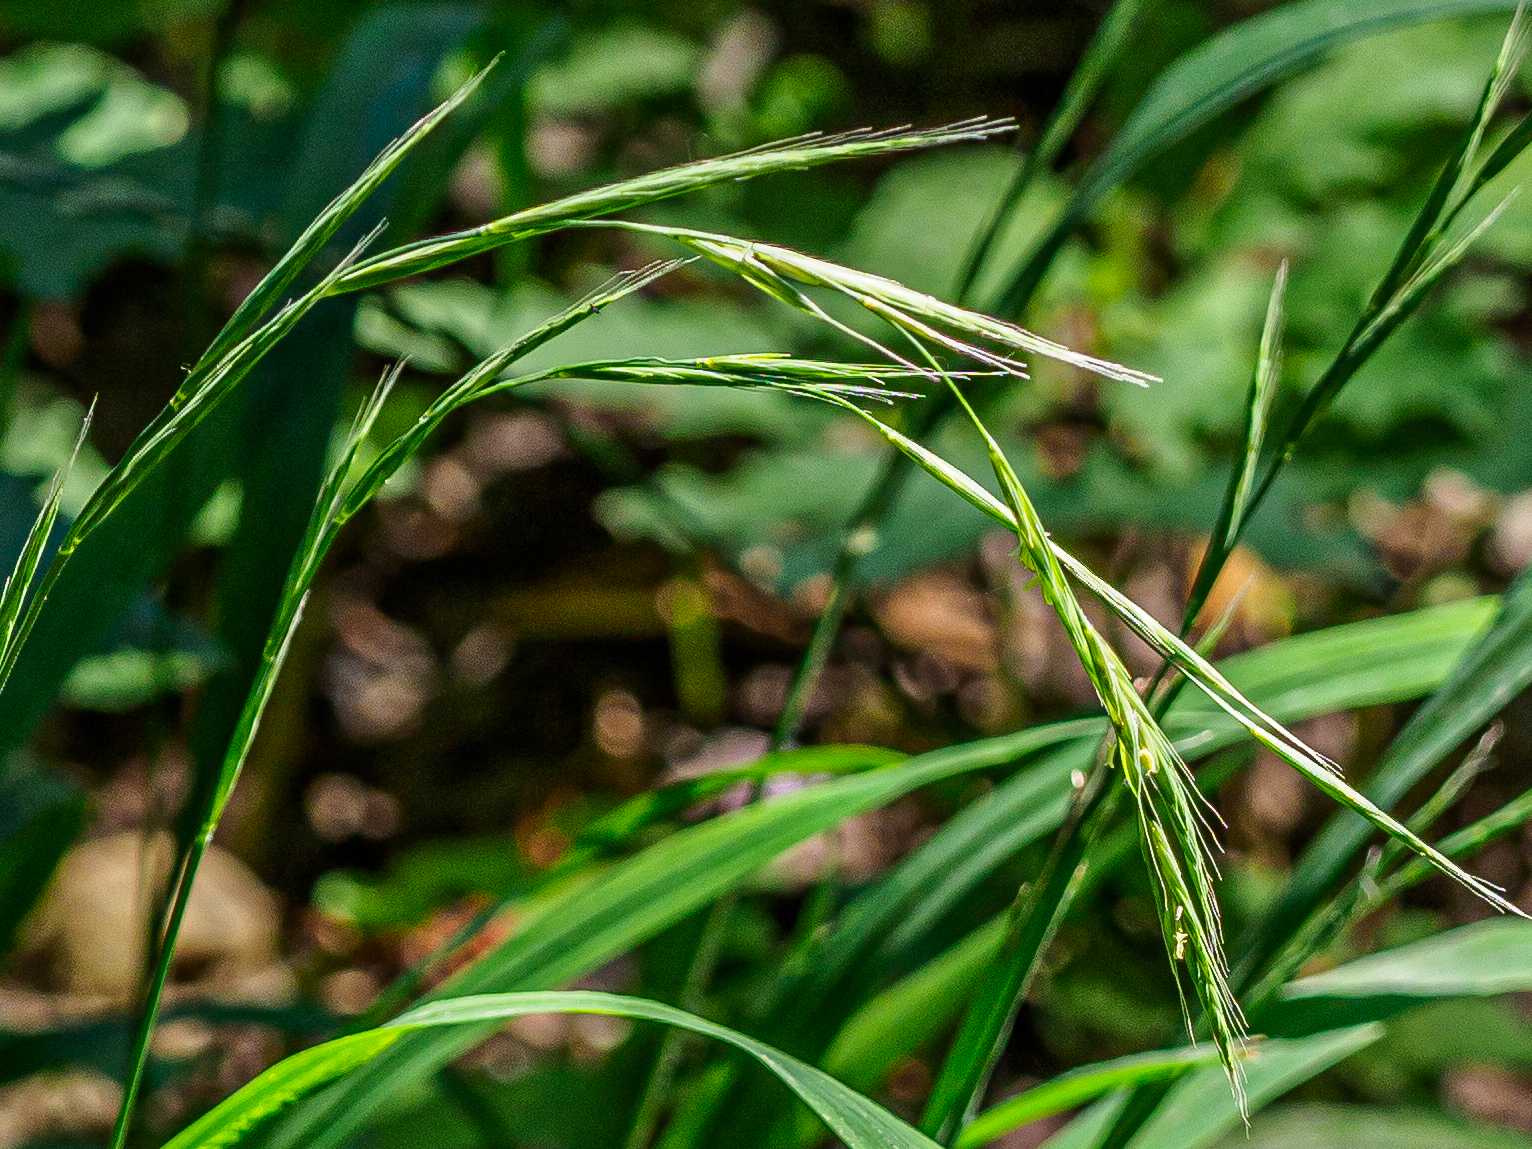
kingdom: Plantae
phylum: Tracheophyta
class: Liliopsida
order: Poales
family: Poaceae
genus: Brachypodium
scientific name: Brachypodium sylvaticum
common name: False-brome
